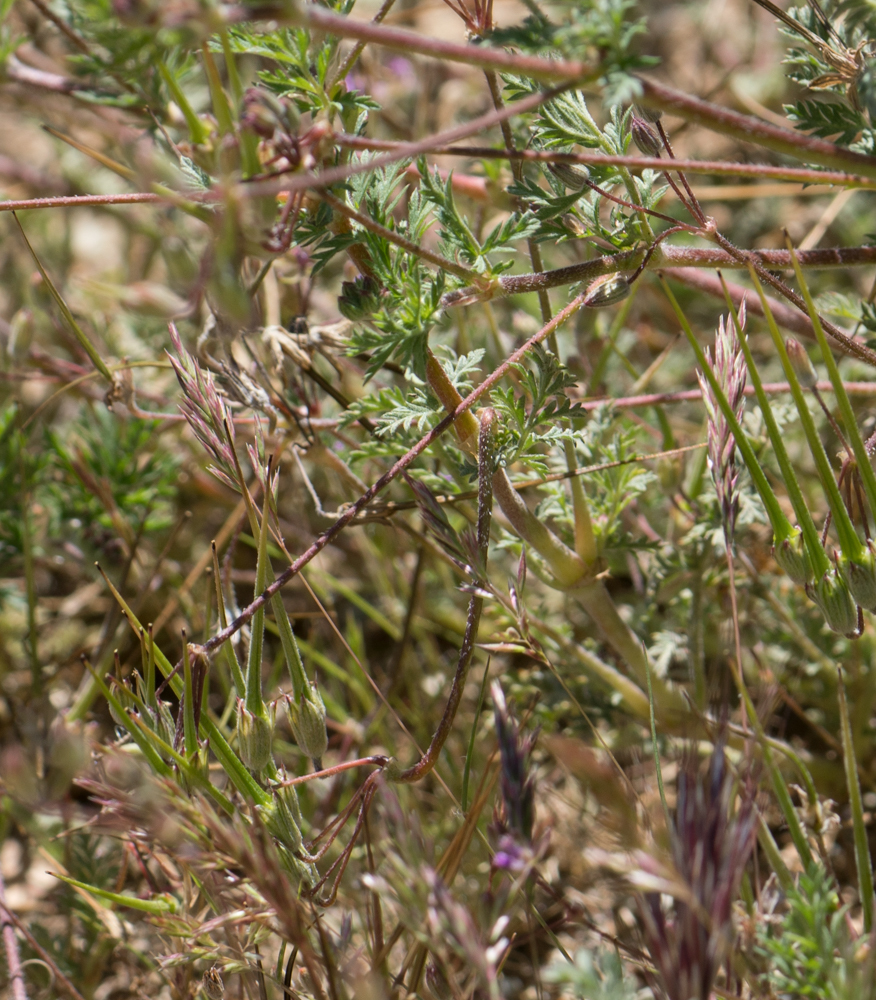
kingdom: Plantae
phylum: Tracheophyta
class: Magnoliopsida
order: Geraniales
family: Geraniaceae
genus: Erodium
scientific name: Erodium cicutarium
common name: Common stork's-bill
